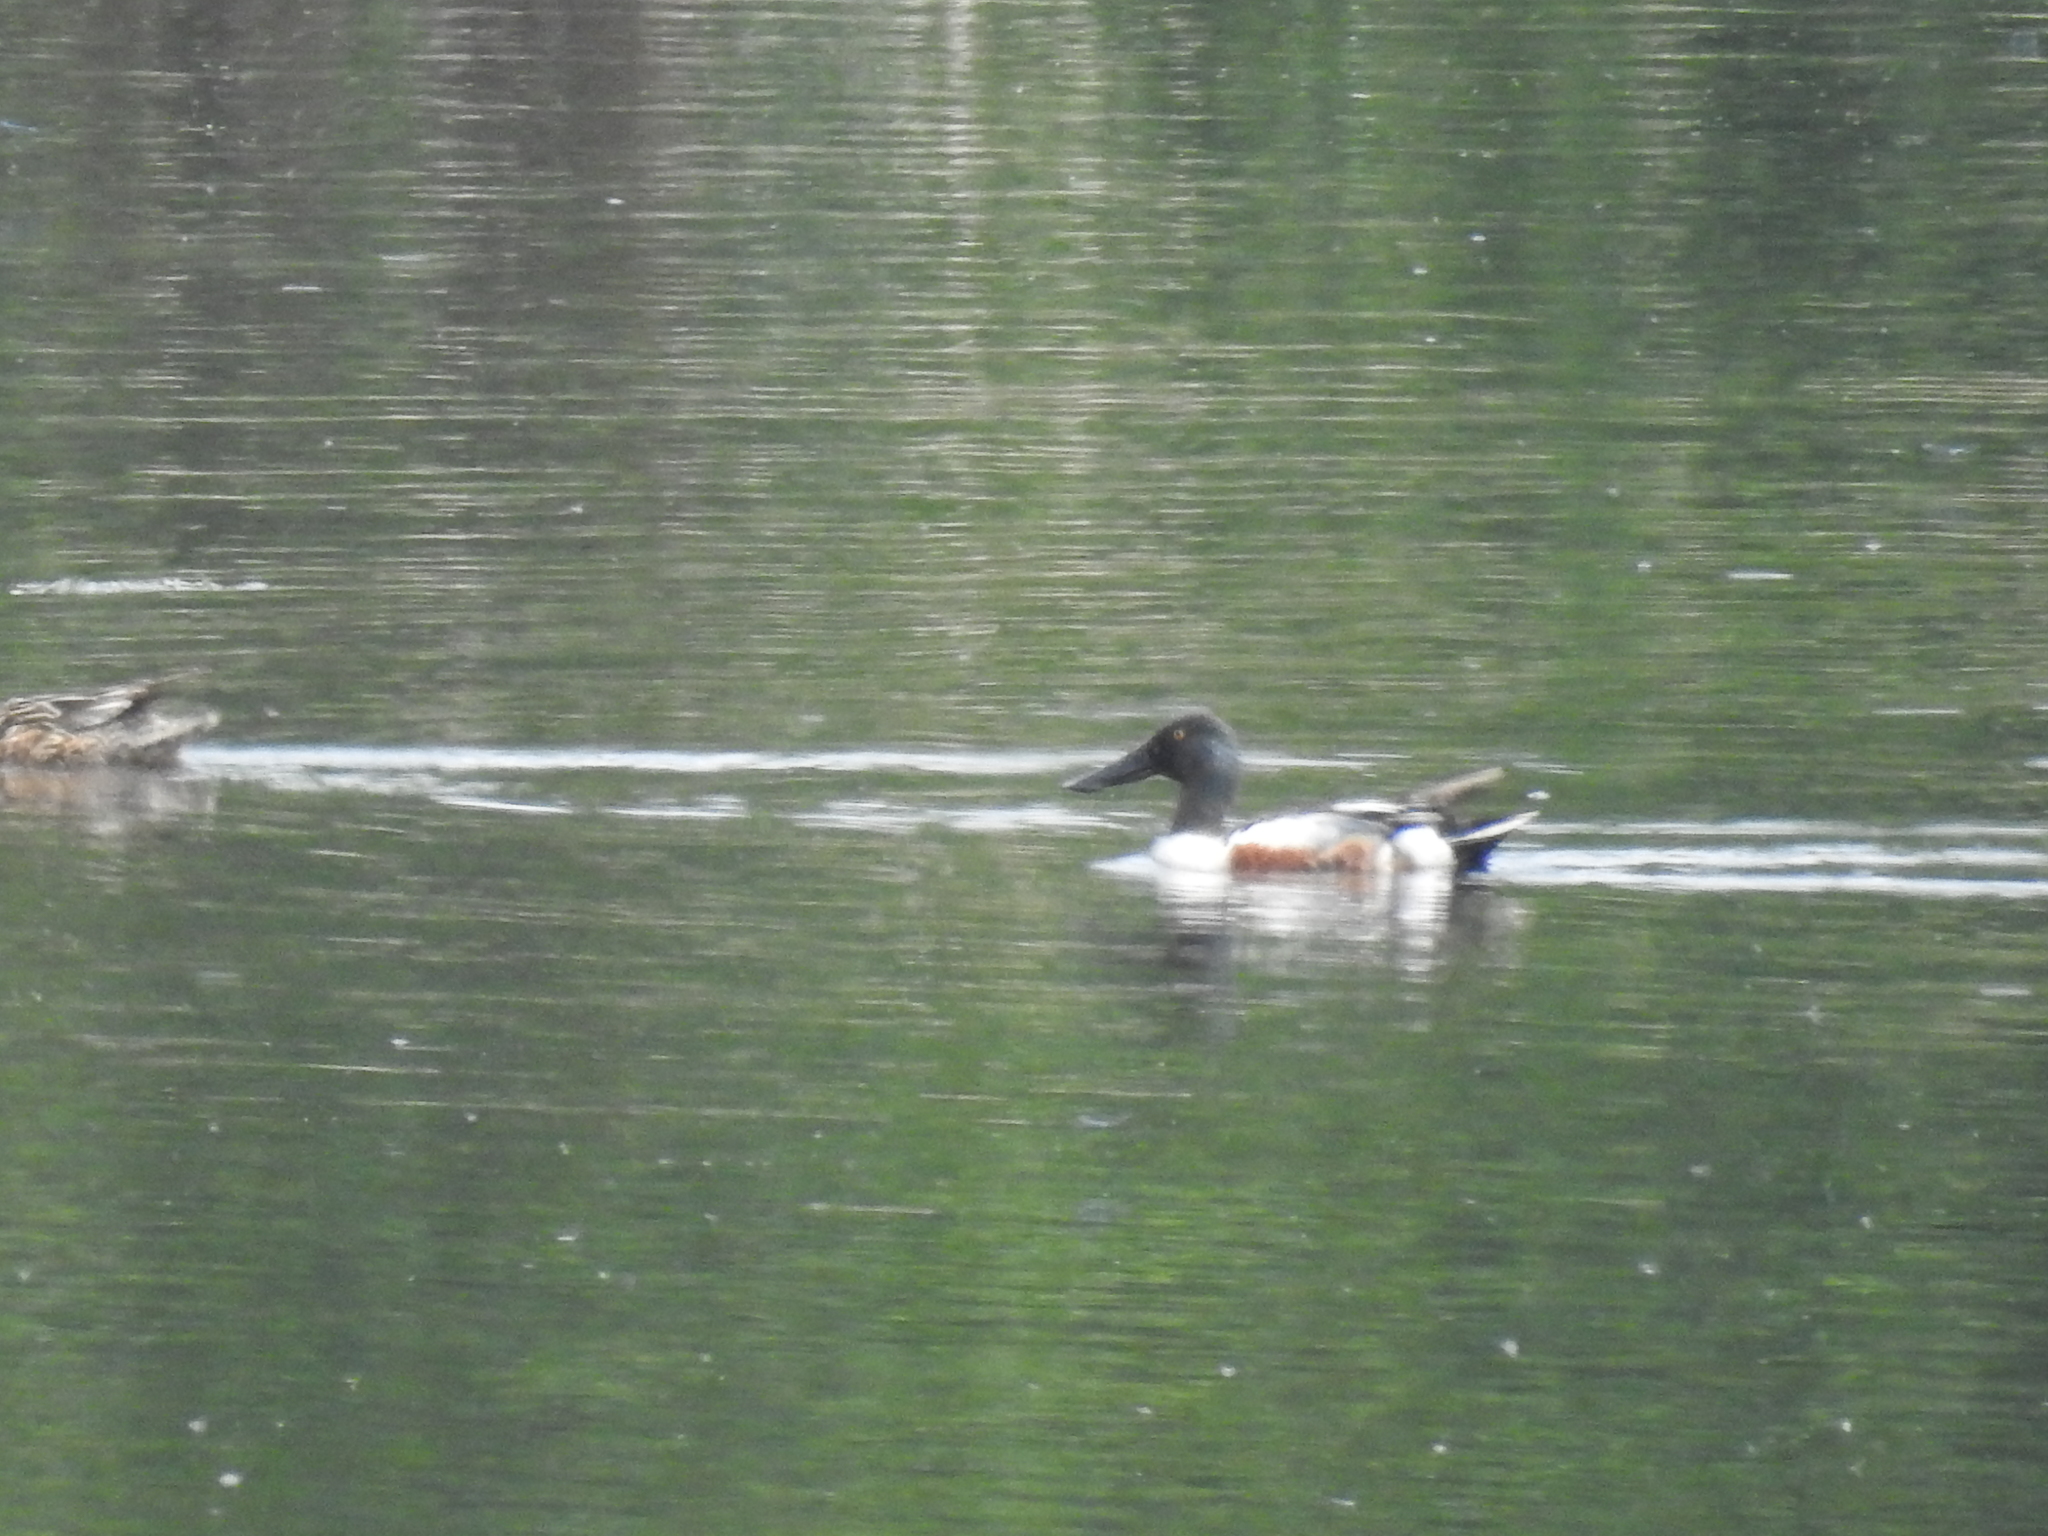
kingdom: Animalia
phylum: Chordata
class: Aves
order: Anseriformes
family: Anatidae
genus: Spatula
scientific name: Spatula clypeata
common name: Northern shoveler
